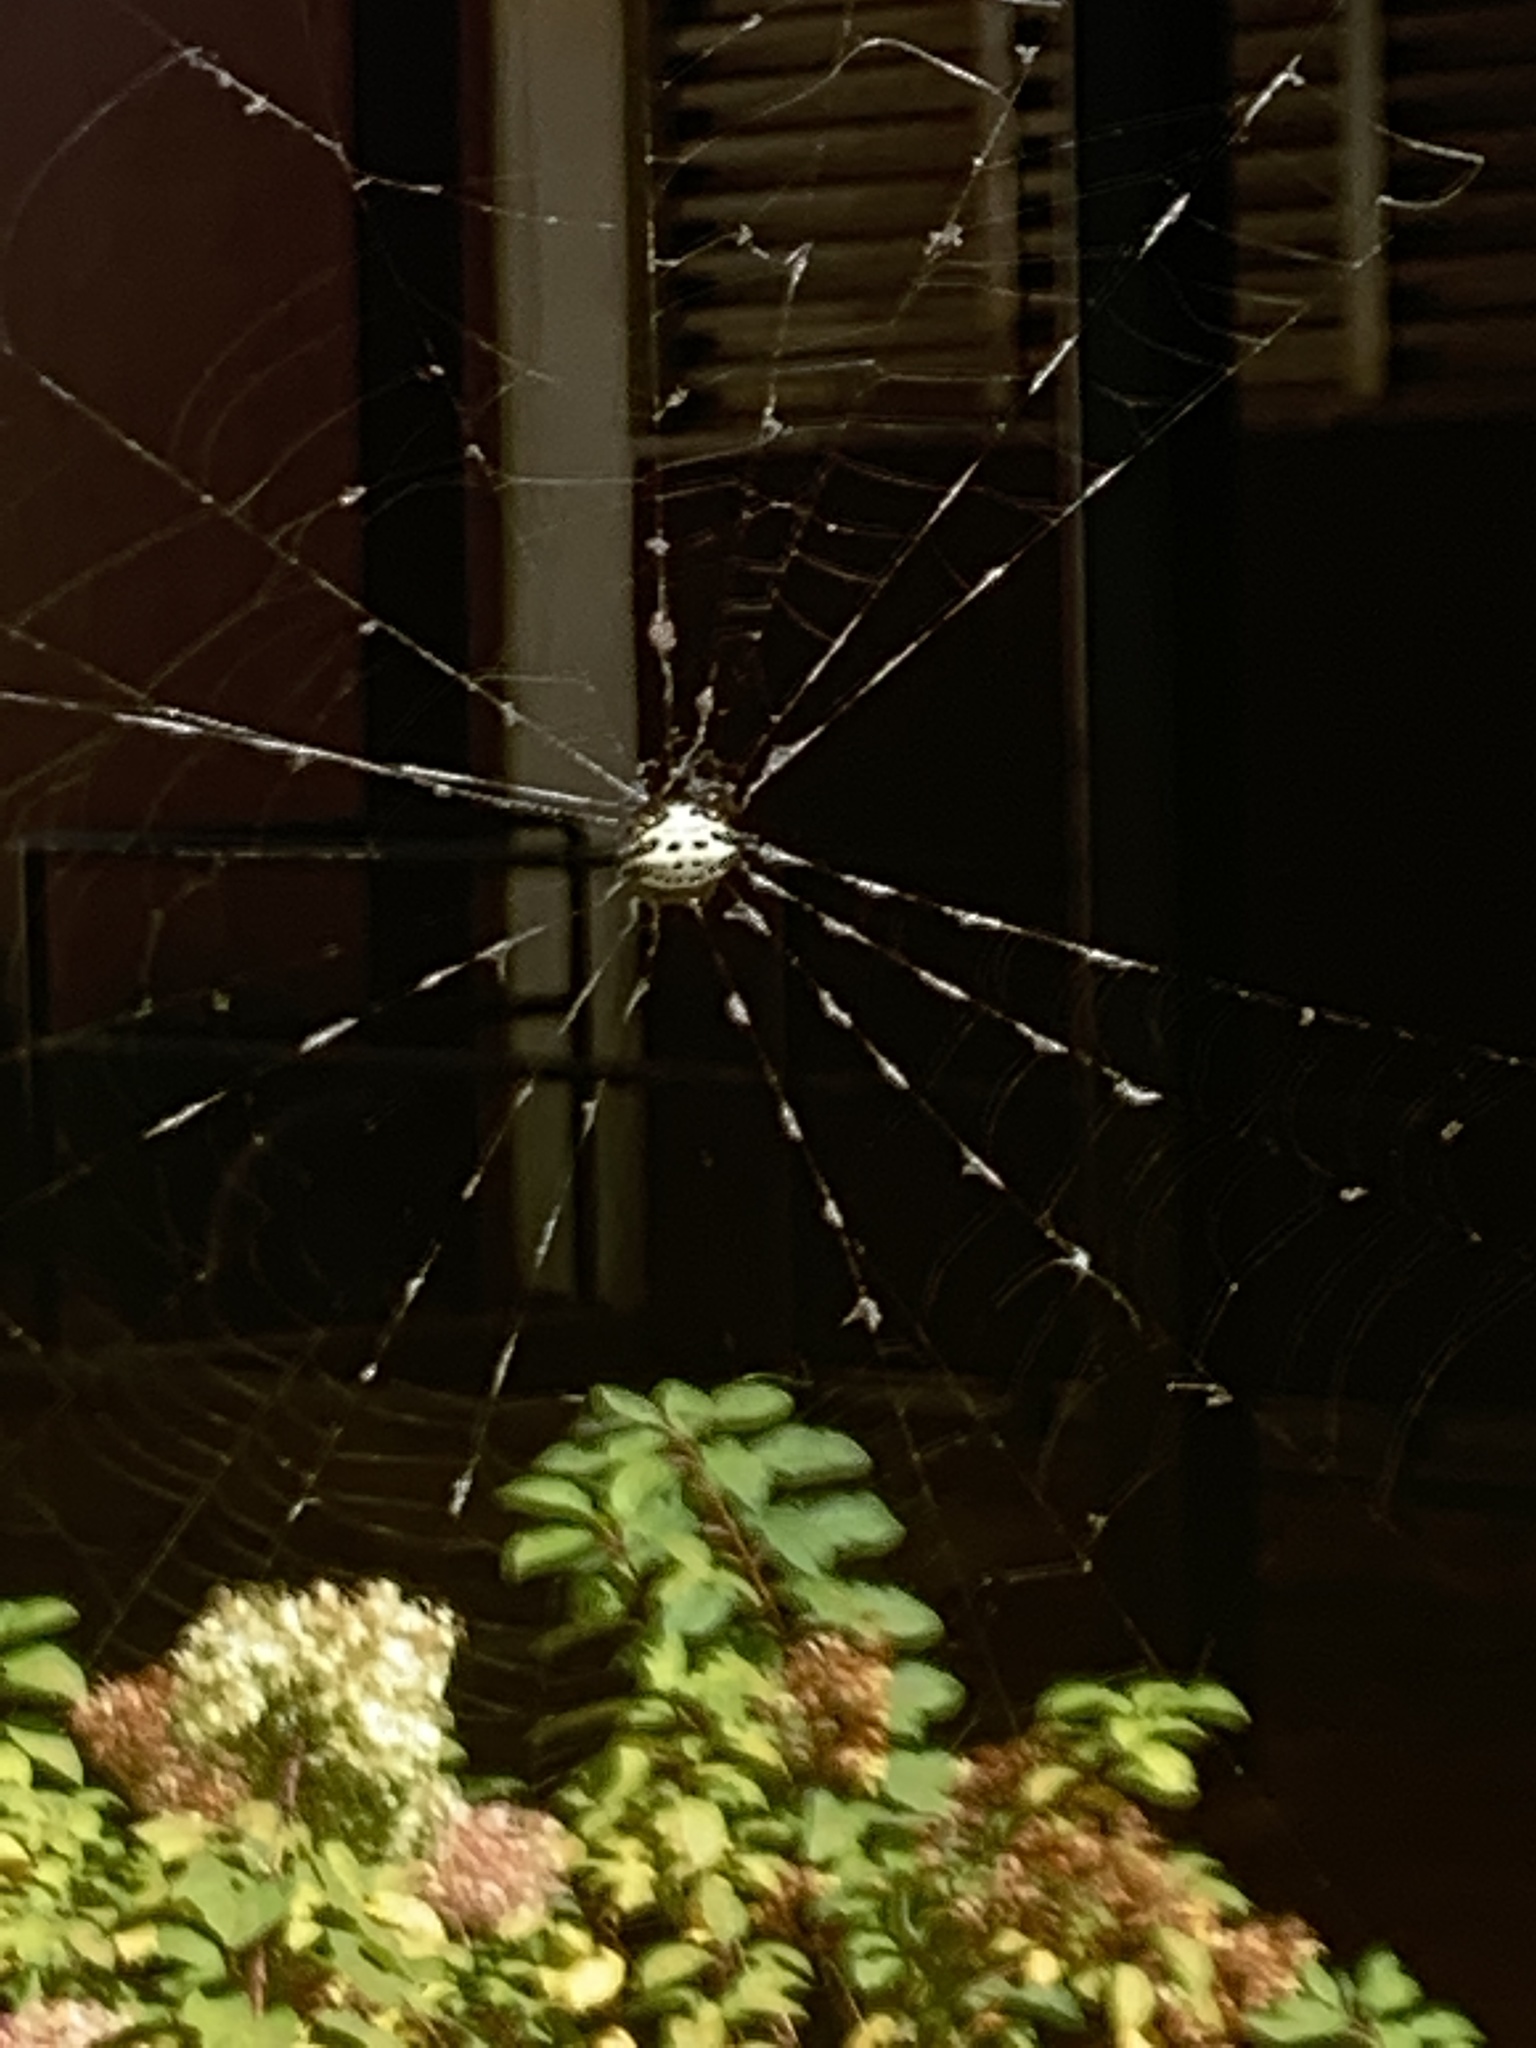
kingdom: Animalia
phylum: Arthropoda
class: Arachnida
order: Araneae
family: Araneidae
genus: Gasteracantha
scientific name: Gasteracantha cancriformis
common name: Orb weavers
